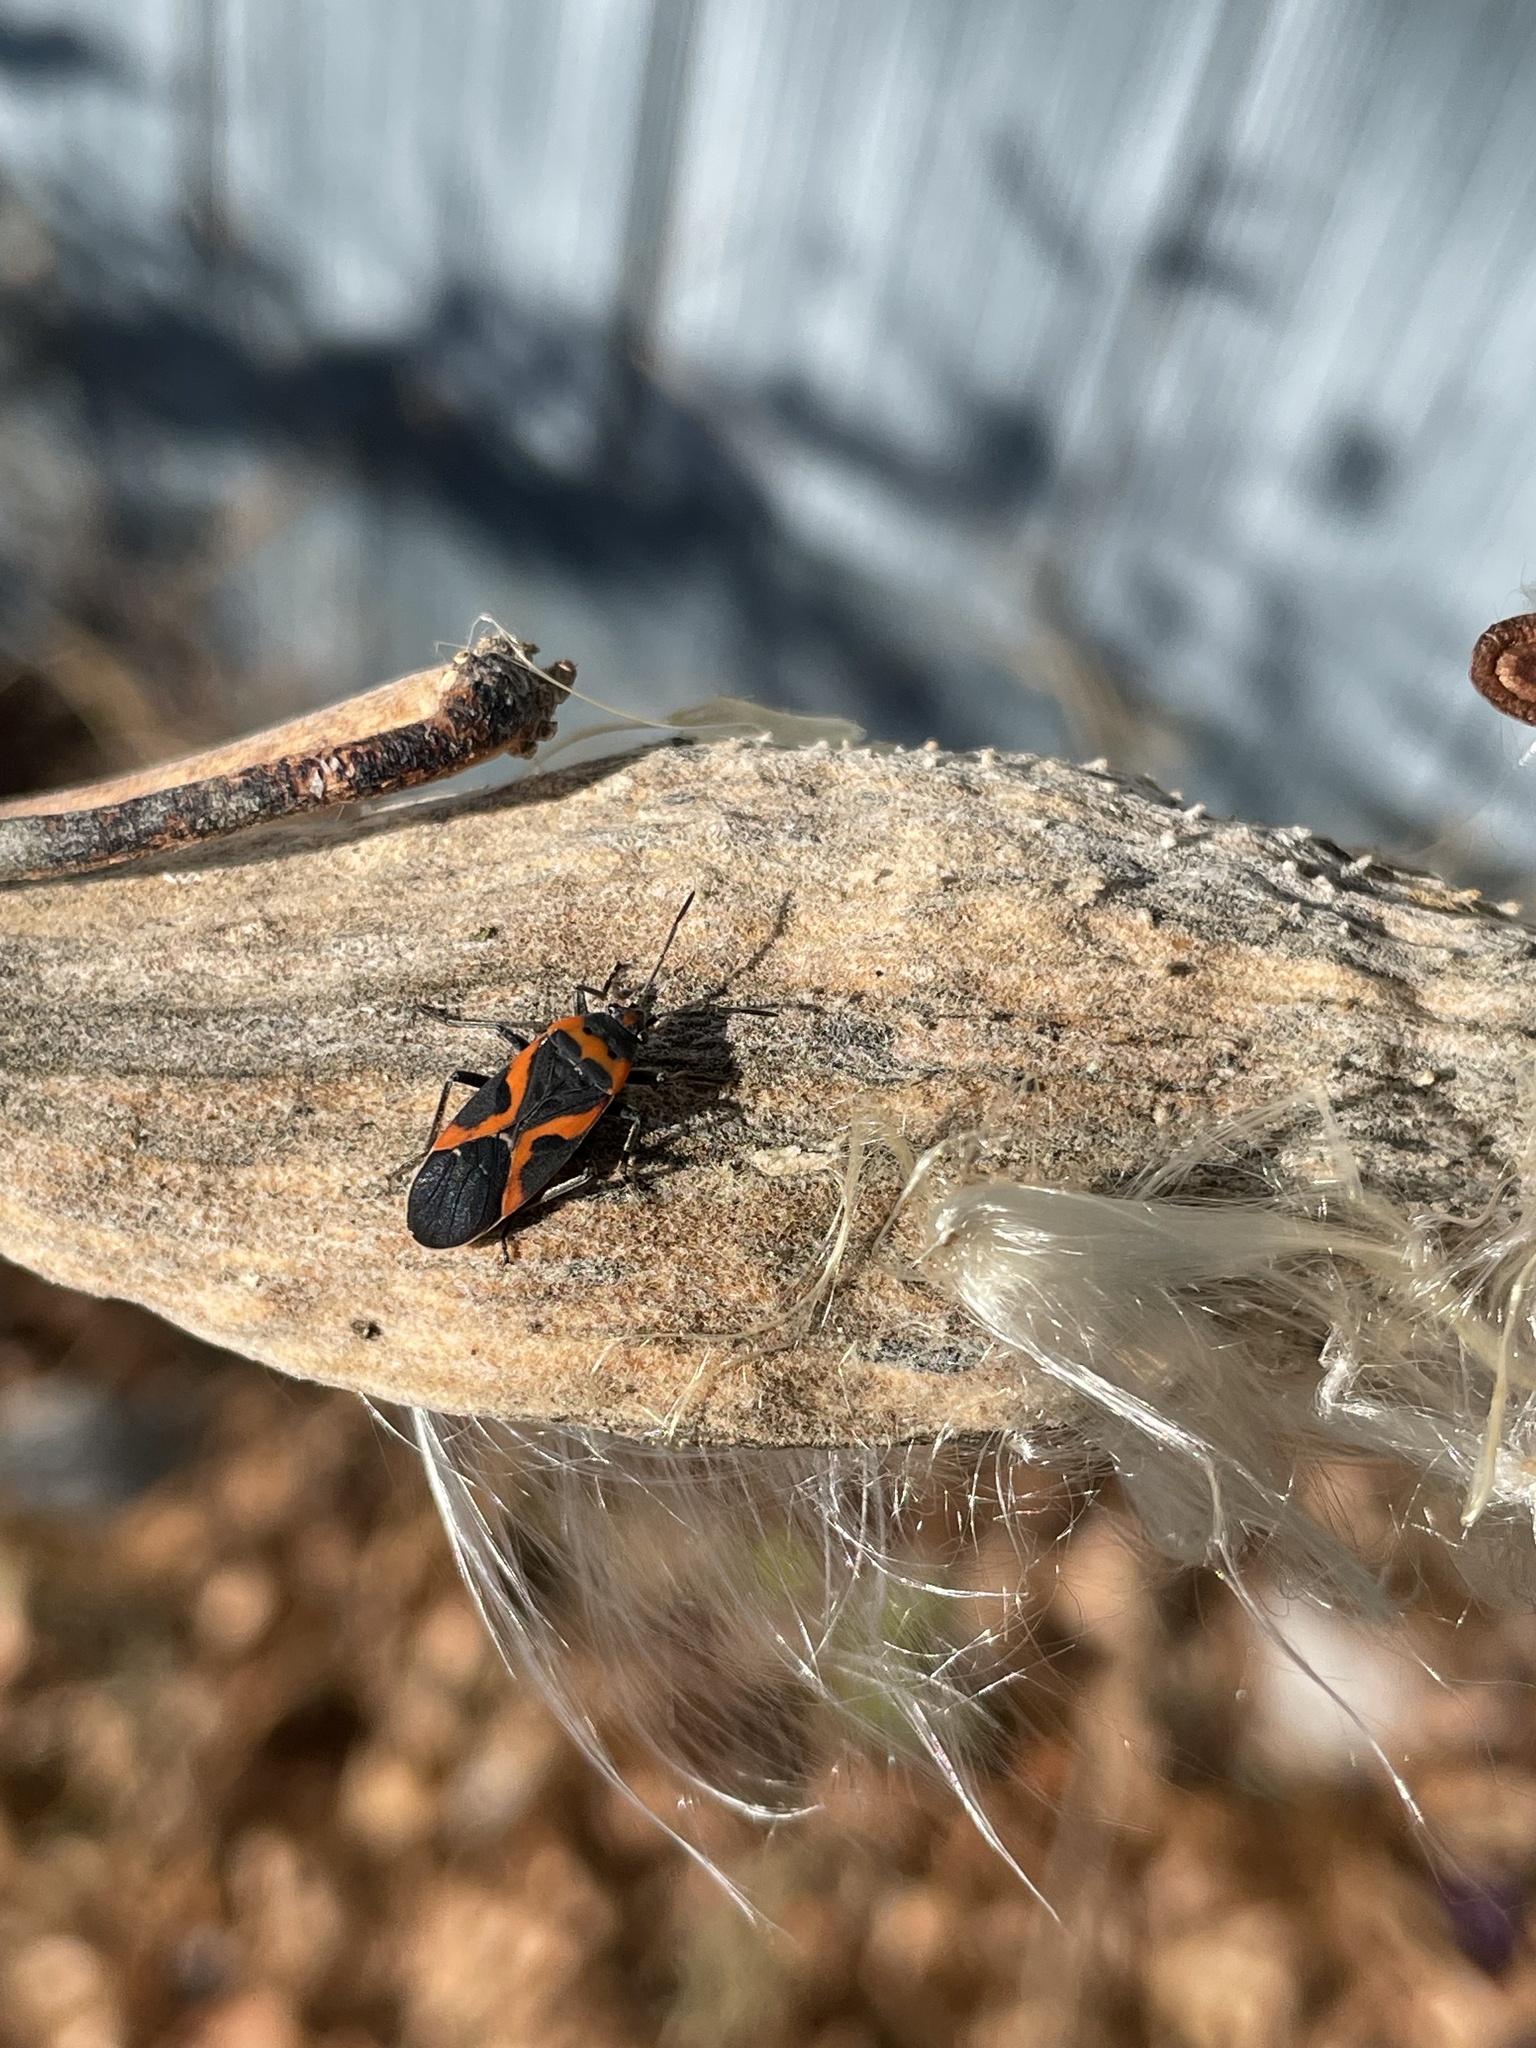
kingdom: Animalia
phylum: Arthropoda
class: Insecta
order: Hemiptera
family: Lygaeidae
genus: Lygaeus
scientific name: Lygaeus kalmii
